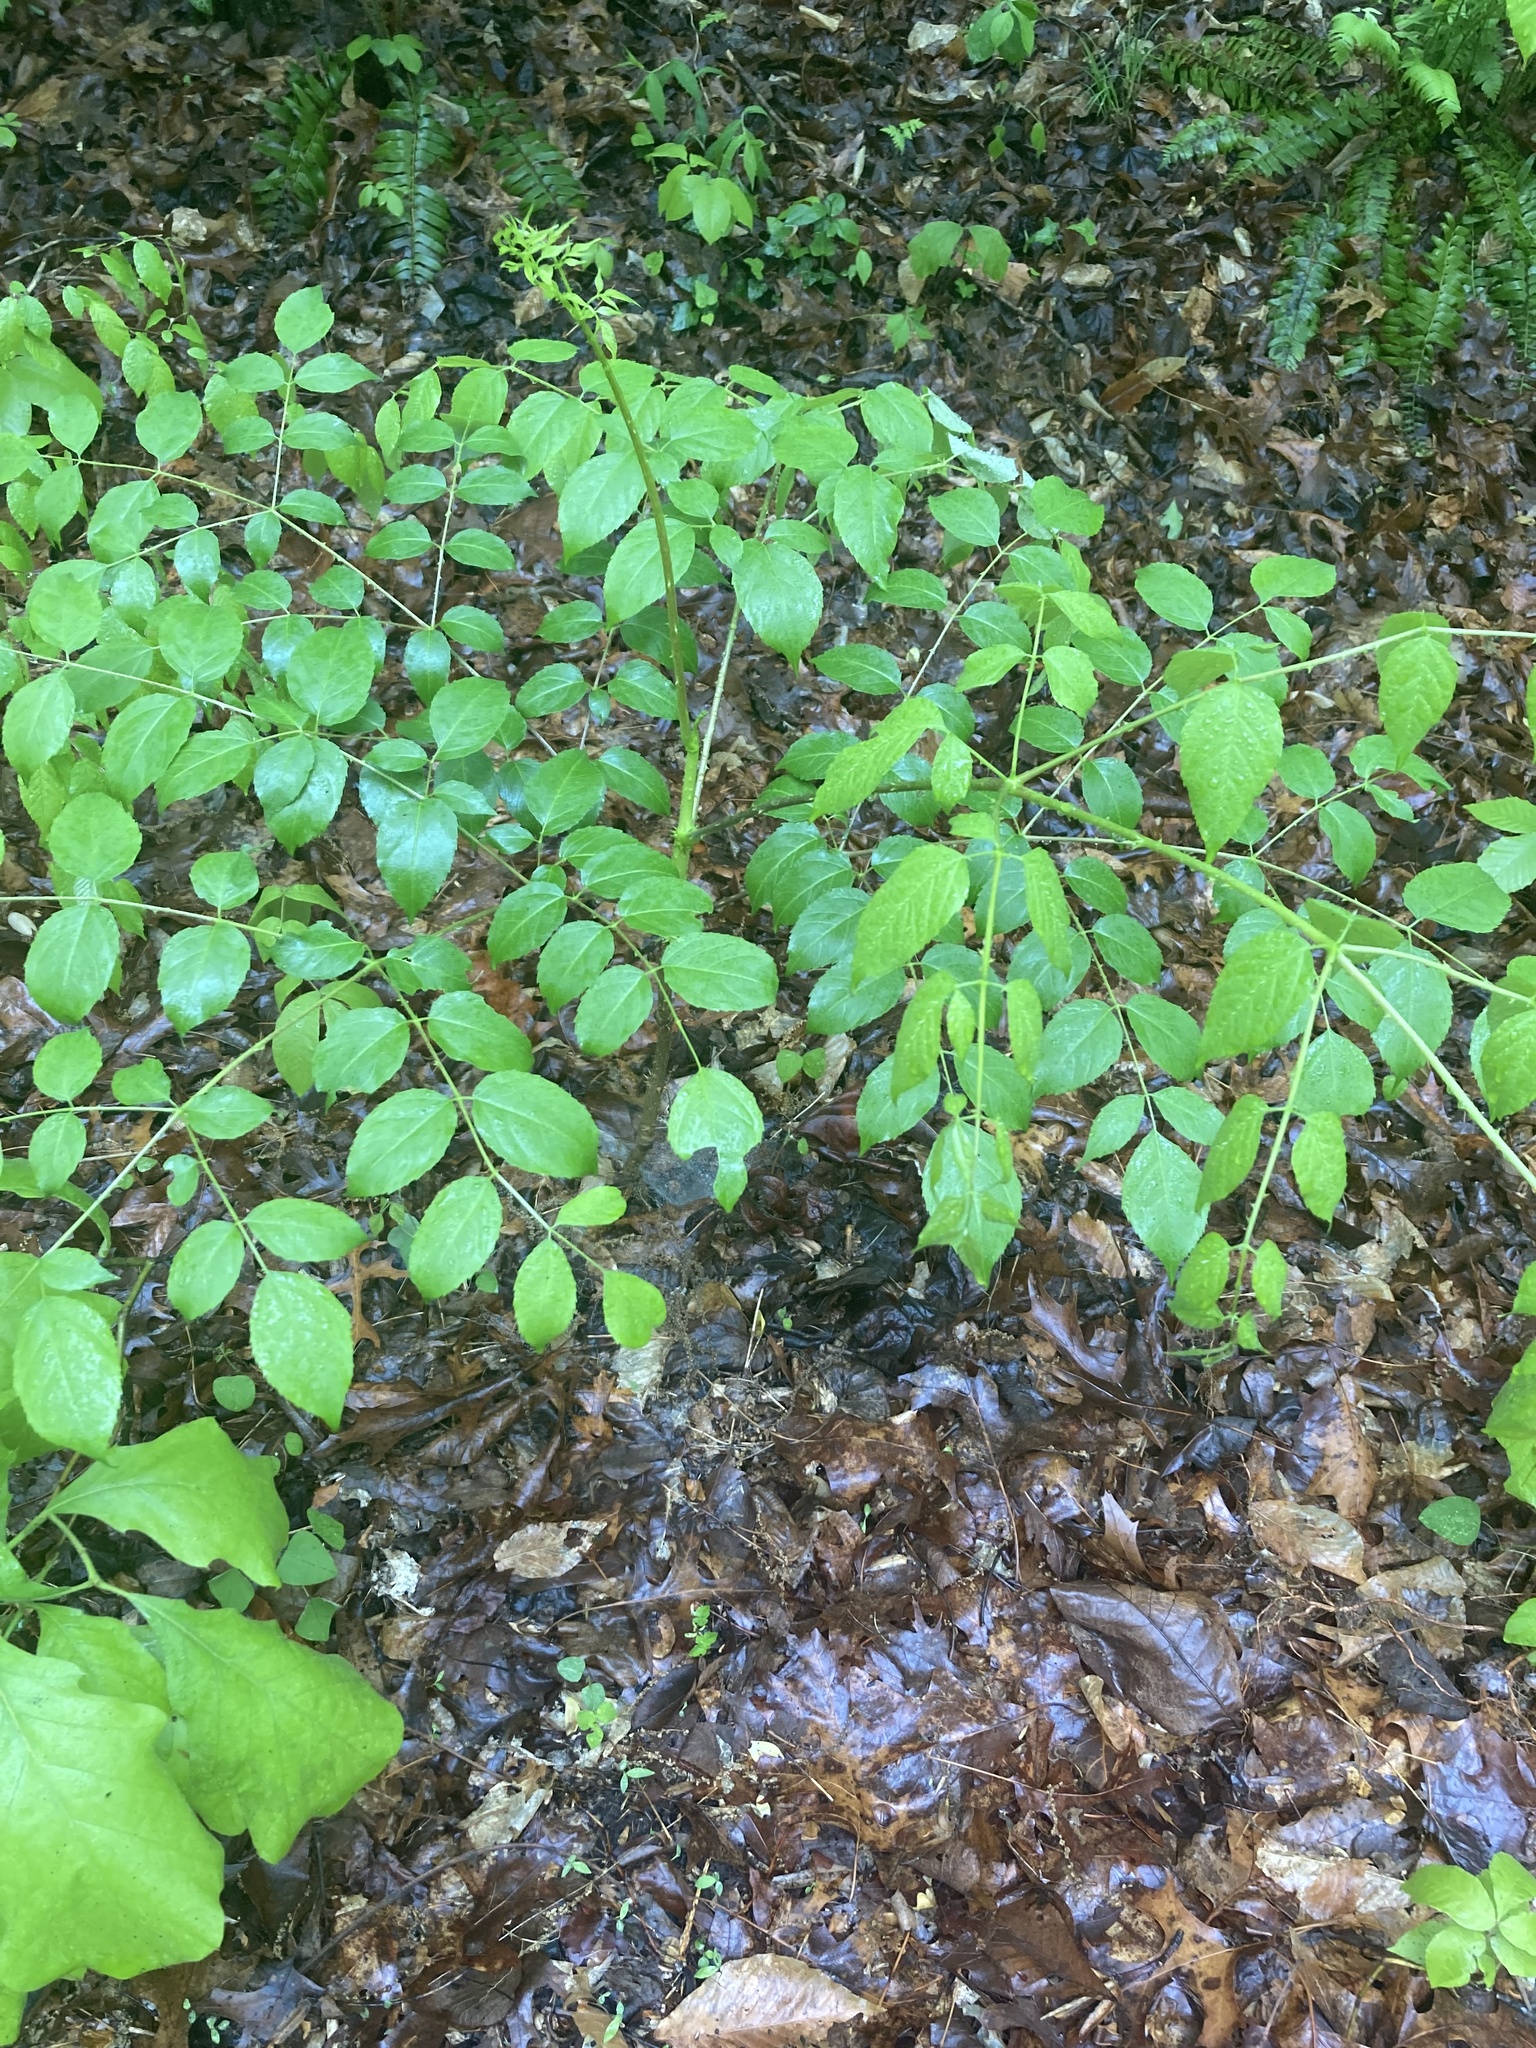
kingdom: Plantae
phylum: Tracheophyta
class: Magnoliopsida
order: Apiales
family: Araliaceae
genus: Aralia
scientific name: Aralia spinosa
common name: Hercules'-club
